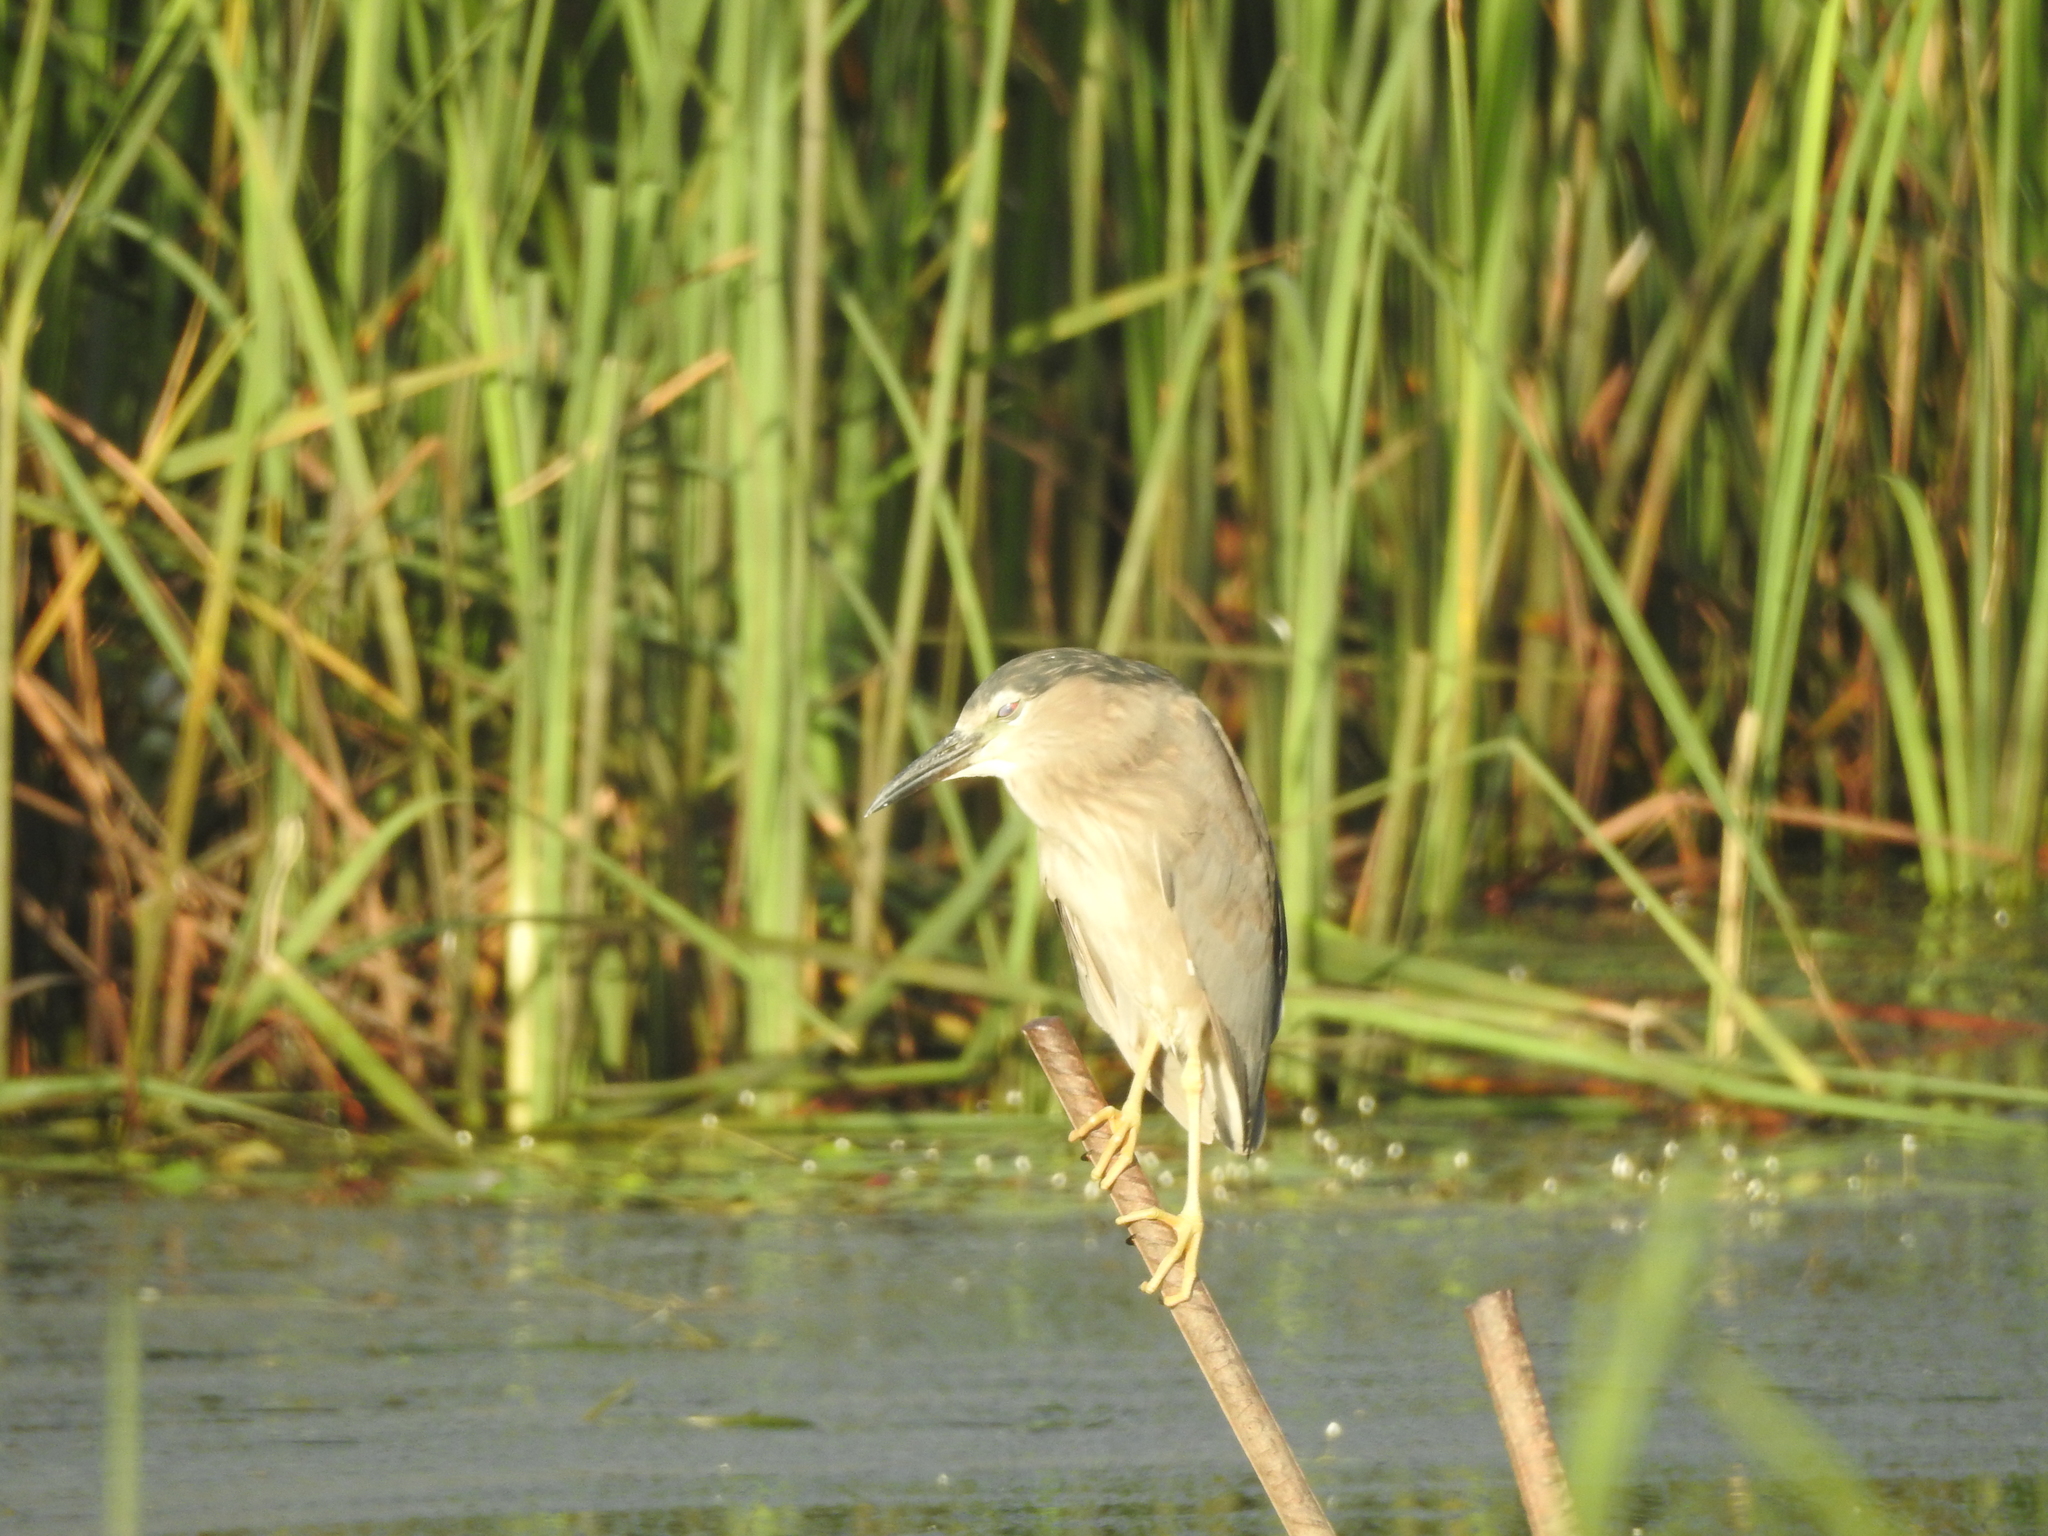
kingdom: Animalia
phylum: Chordata
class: Aves
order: Pelecaniformes
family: Ardeidae
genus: Nycticorax
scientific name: Nycticorax nycticorax
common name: Black-crowned night heron
